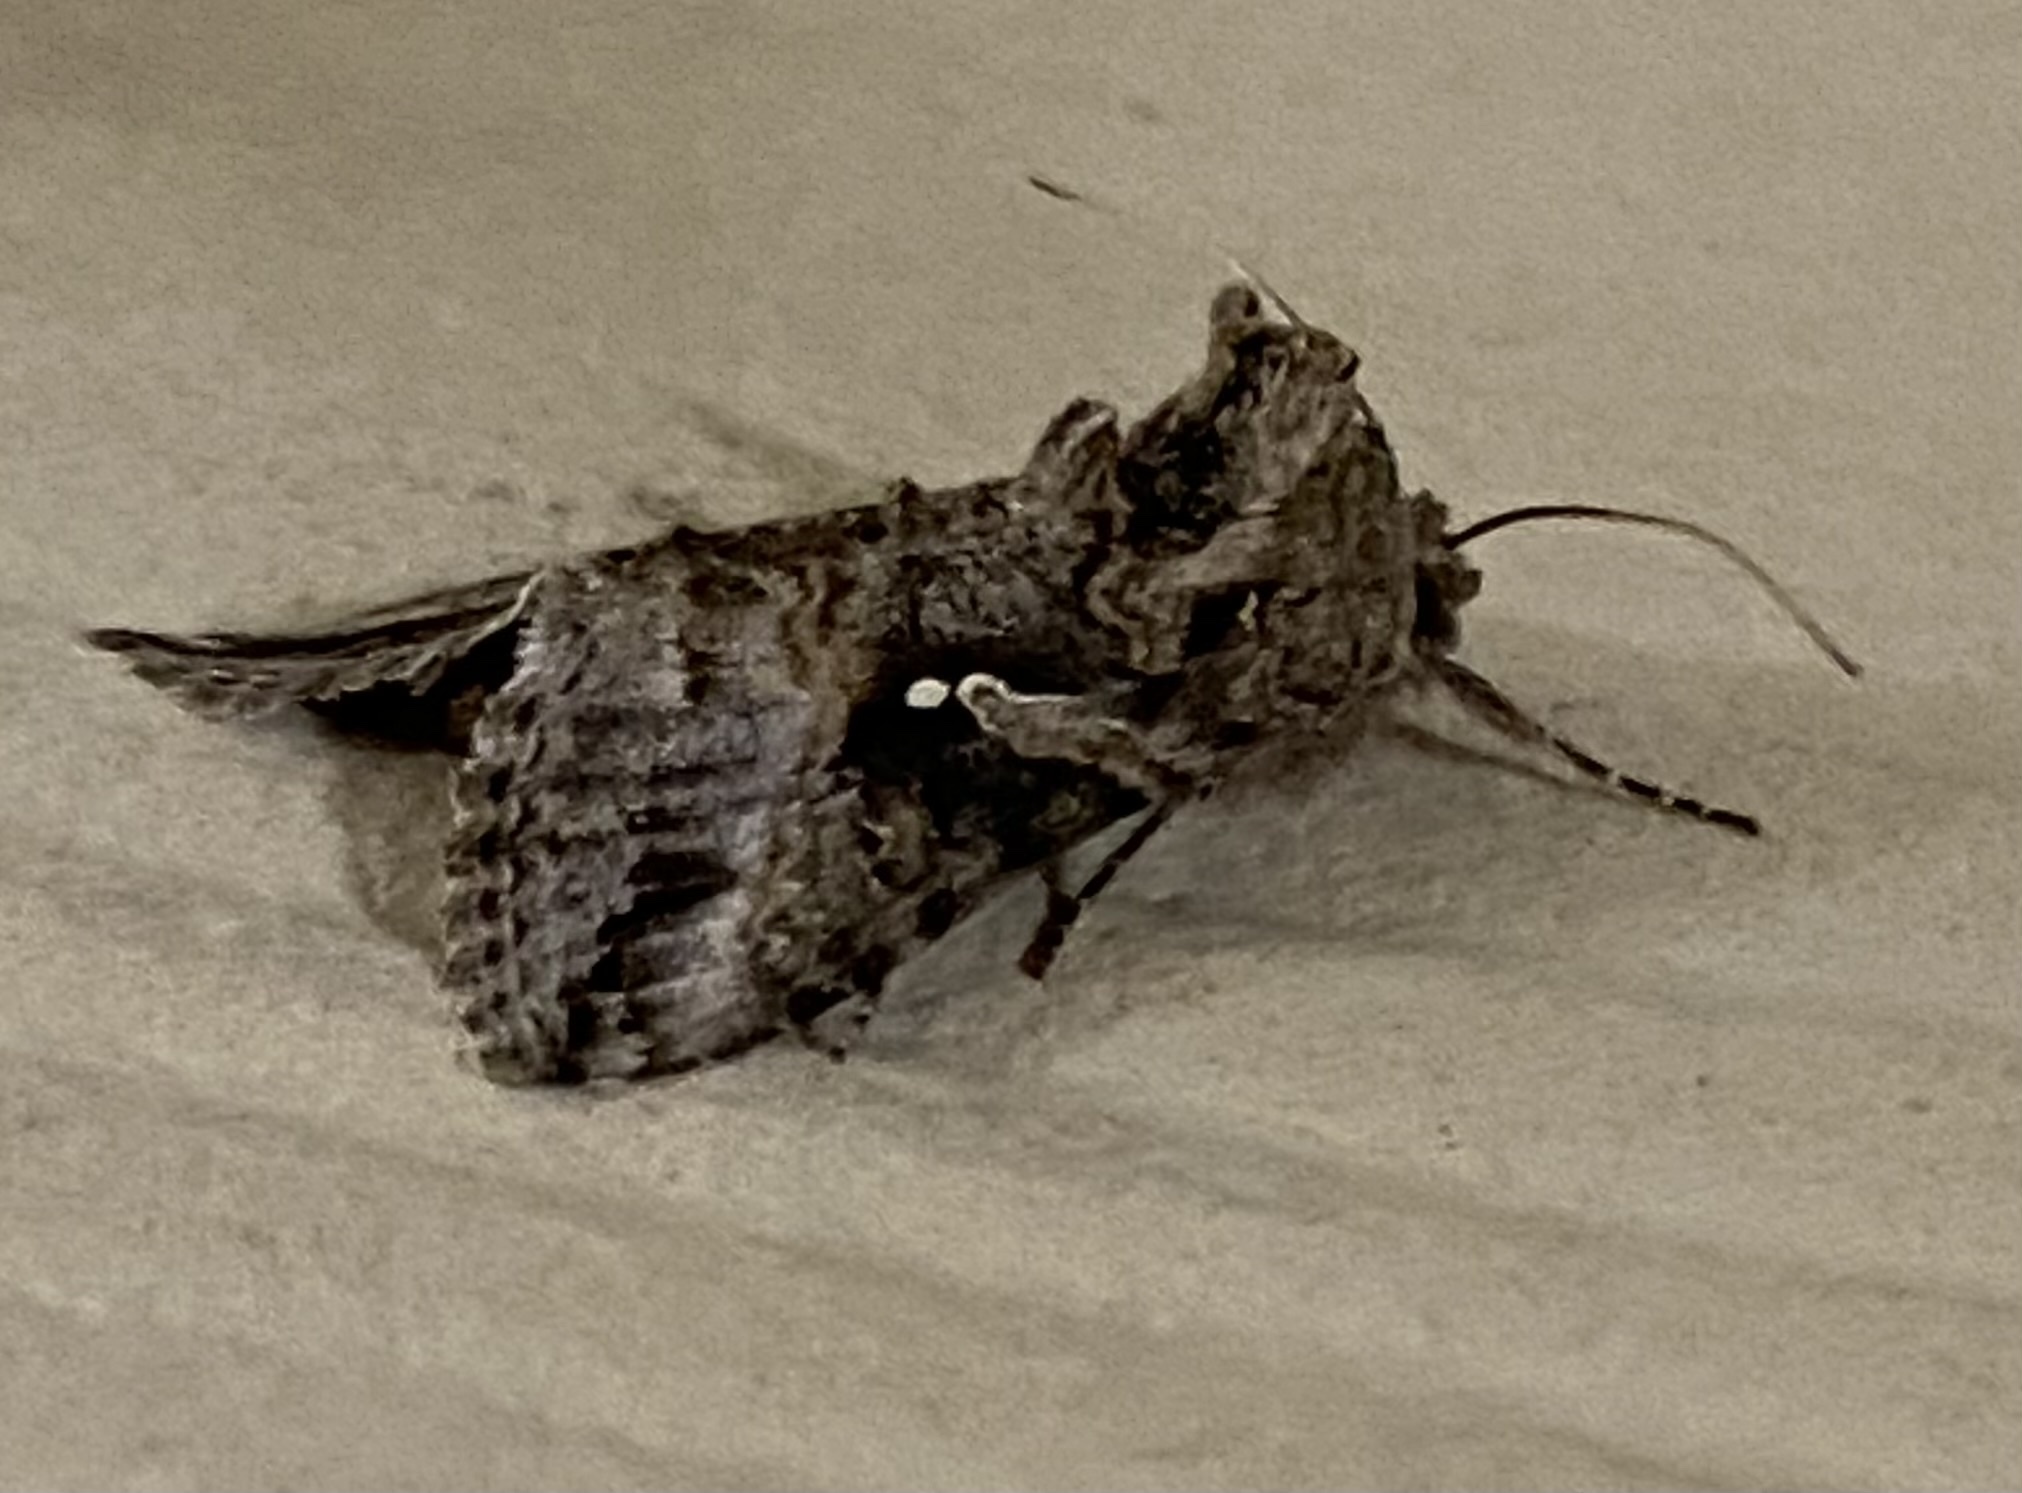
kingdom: Animalia
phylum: Arthropoda
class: Insecta
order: Lepidoptera
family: Noctuidae
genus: Rachiplusia
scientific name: Rachiplusia ou
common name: Gray looper moth
